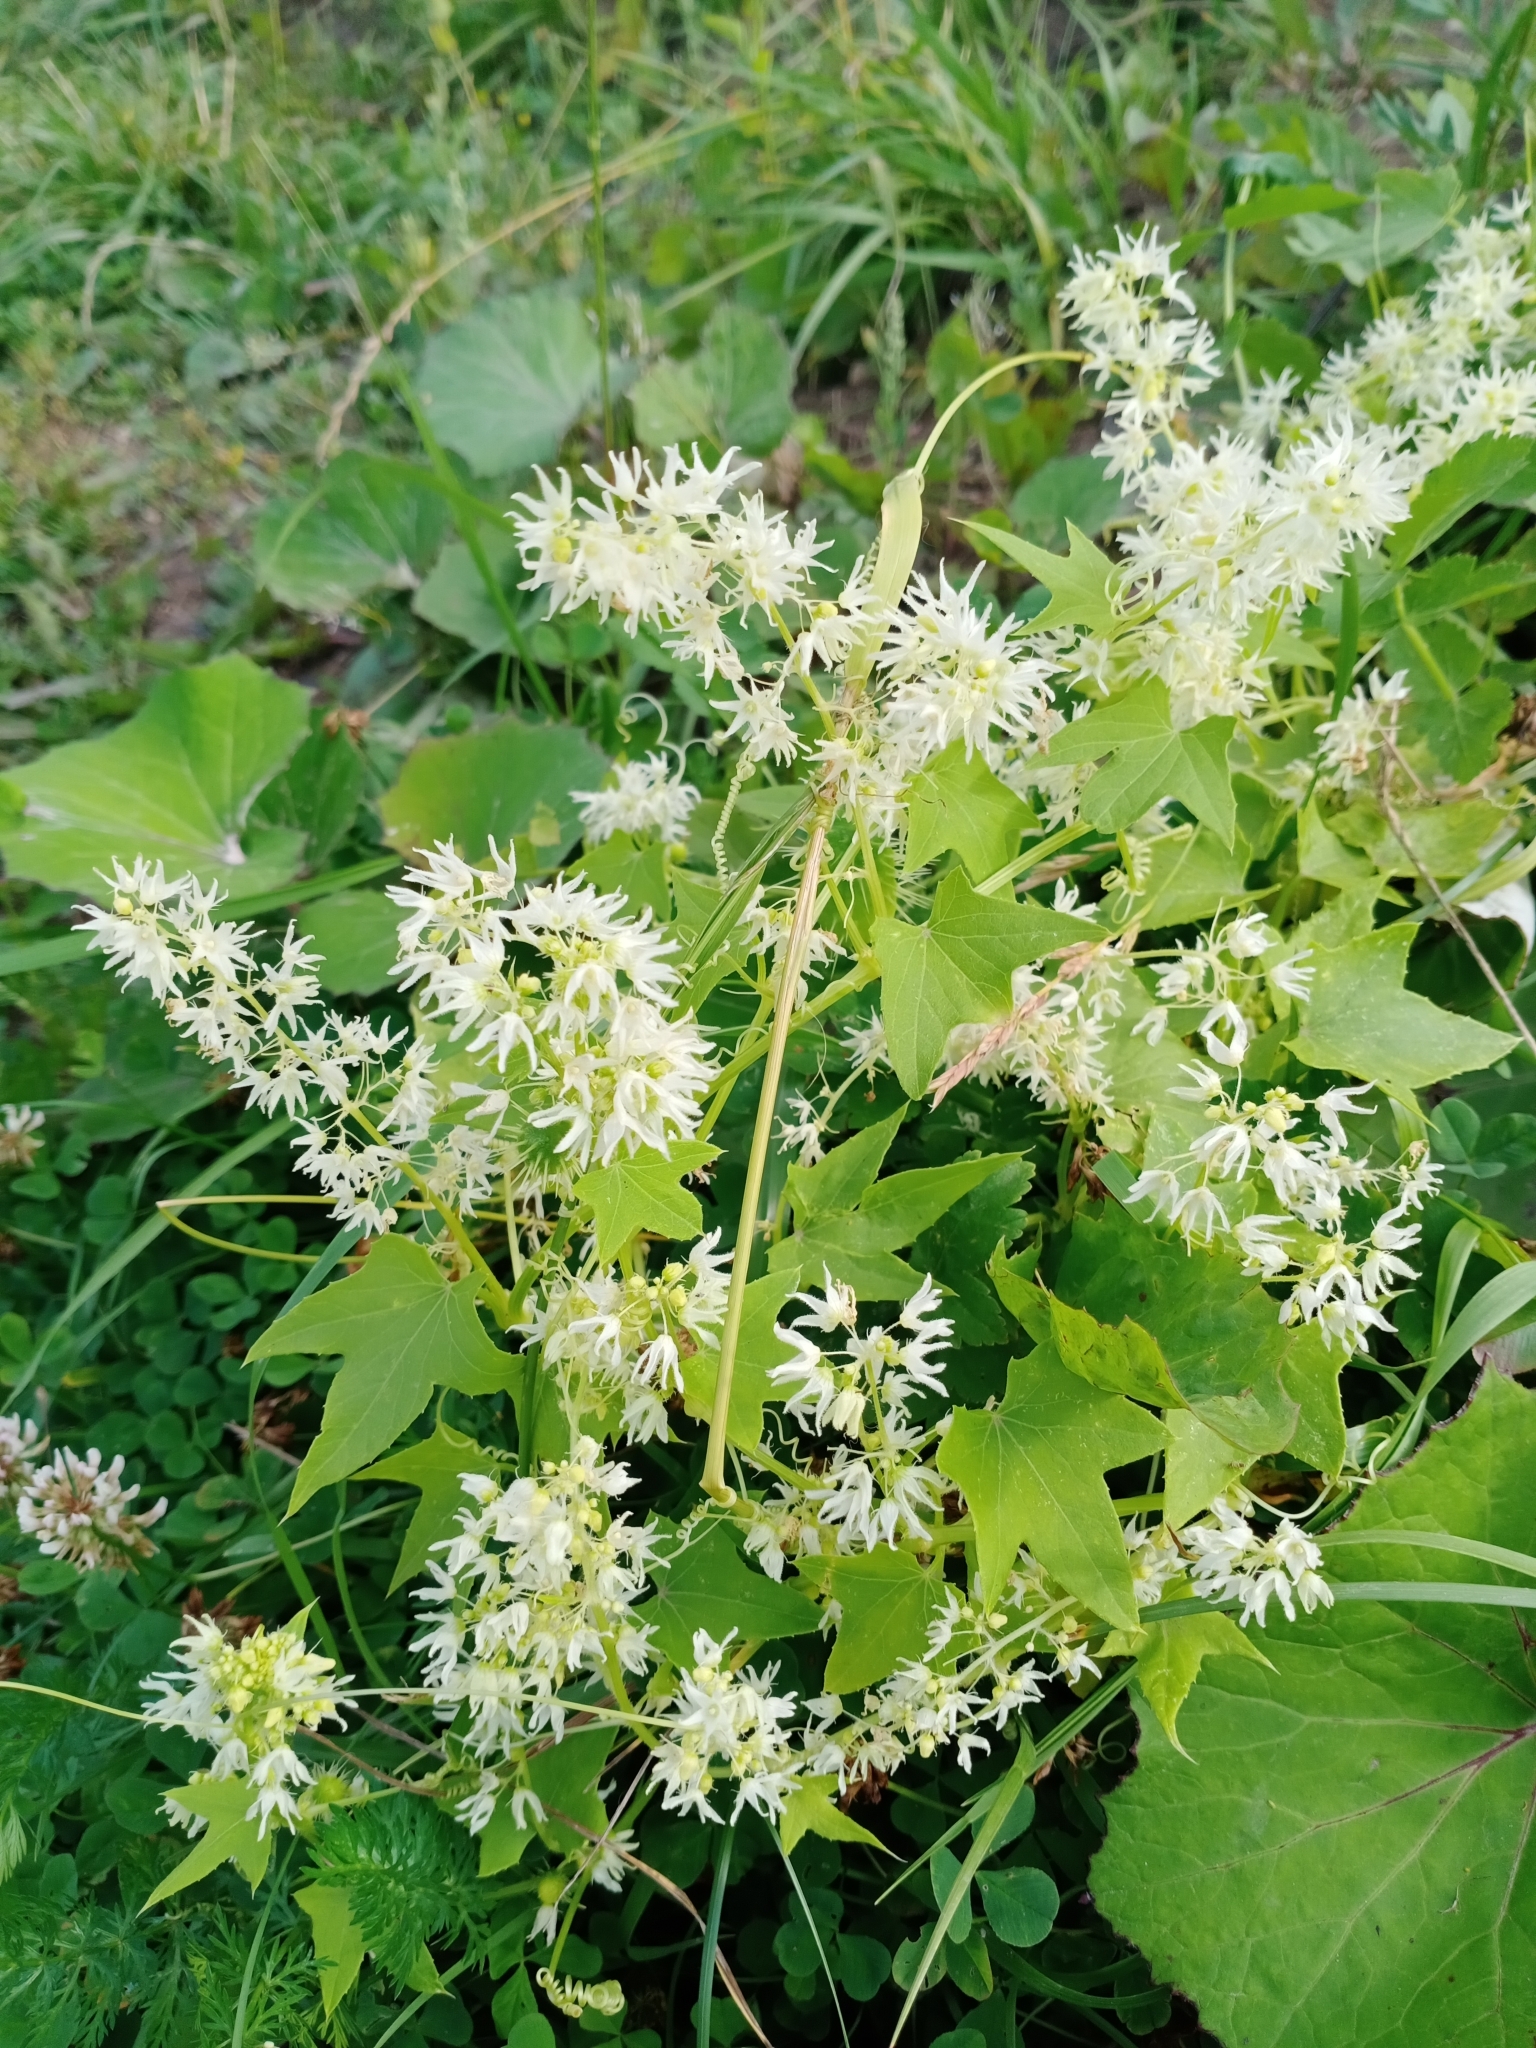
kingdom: Plantae
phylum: Tracheophyta
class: Magnoliopsida
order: Cucurbitales
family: Cucurbitaceae
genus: Echinocystis
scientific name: Echinocystis lobata
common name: Wild cucumber
